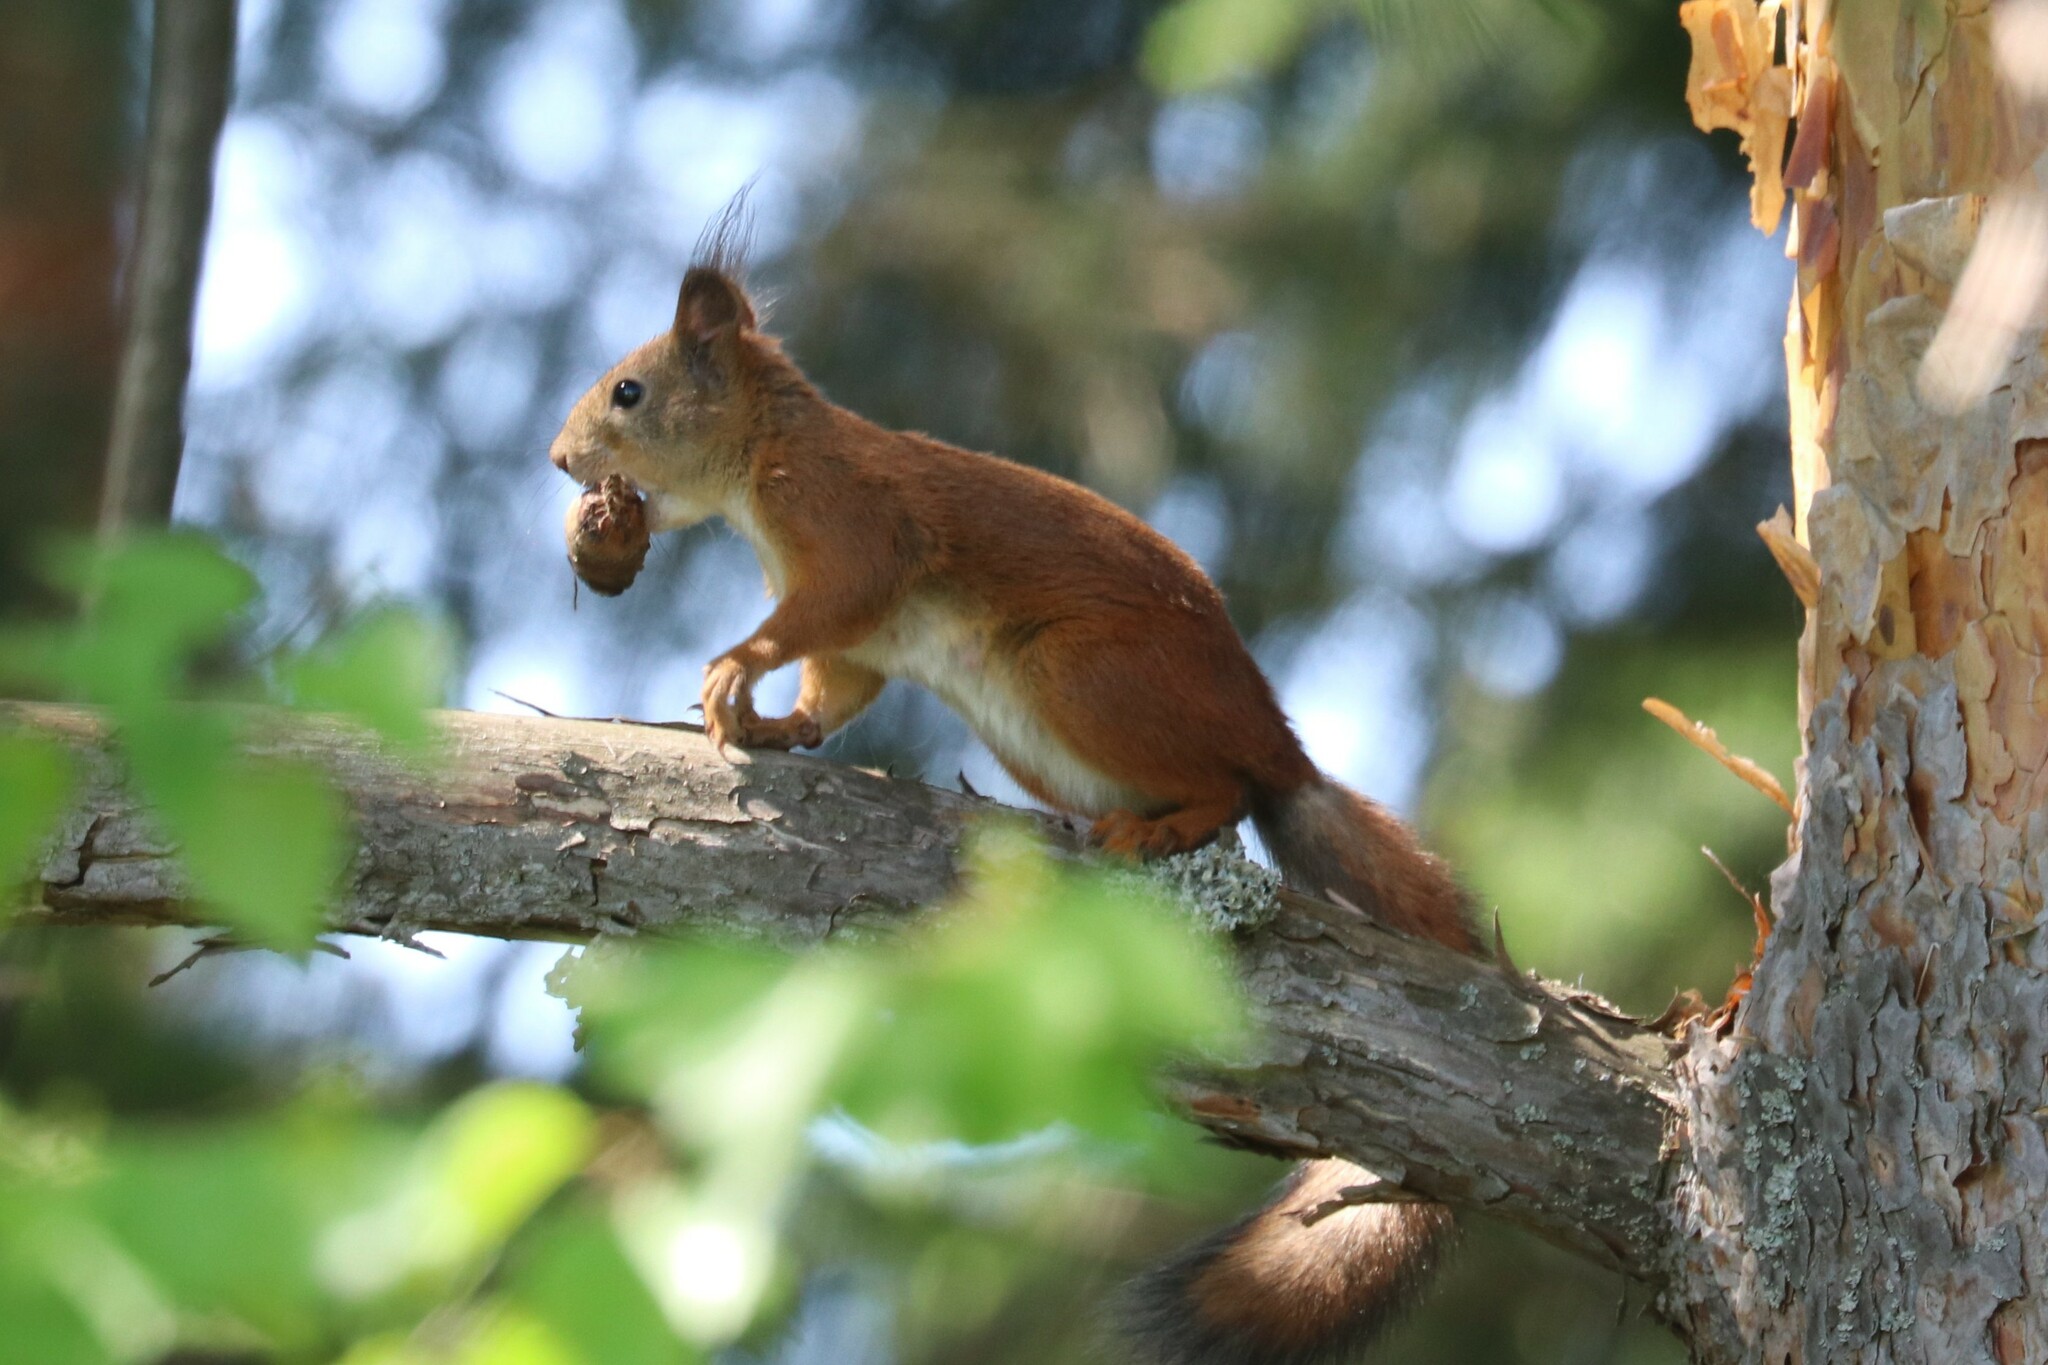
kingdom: Animalia
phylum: Chordata
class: Mammalia
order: Rodentia
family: Sciuridae
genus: Sciurus
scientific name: Sciurus vulgaris
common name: Eurasian red squirrel
